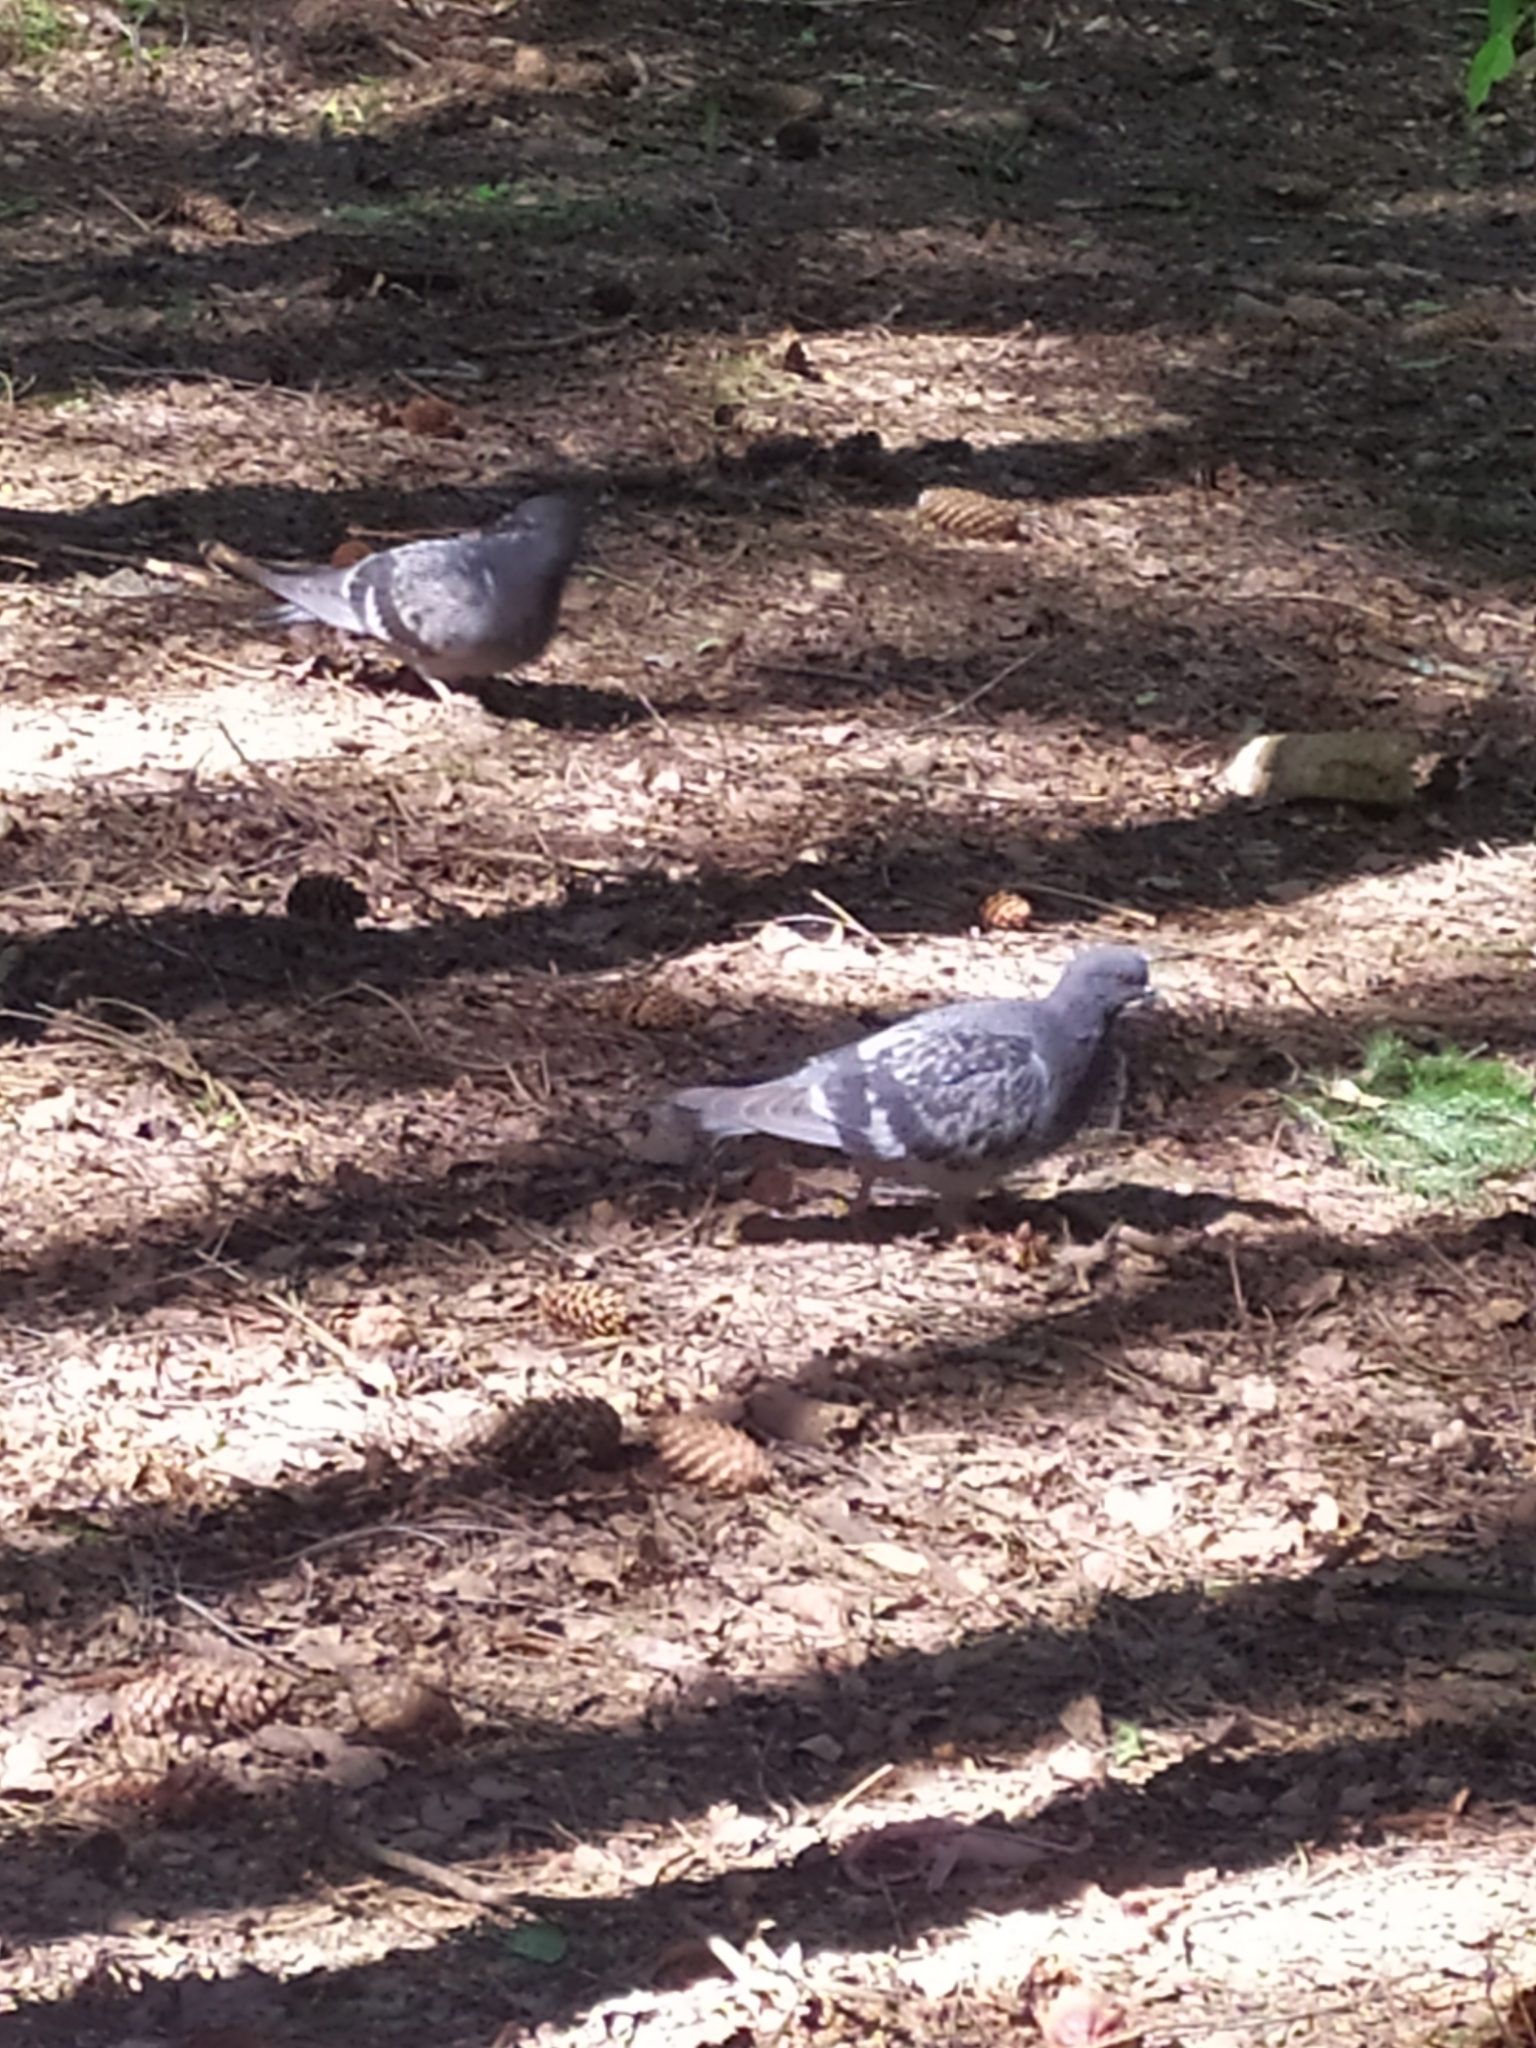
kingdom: Animalia
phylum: Chordata
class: Aves
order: Columbiformes
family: Columbidae
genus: Columba
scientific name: Columba livia
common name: Rock pigeon
